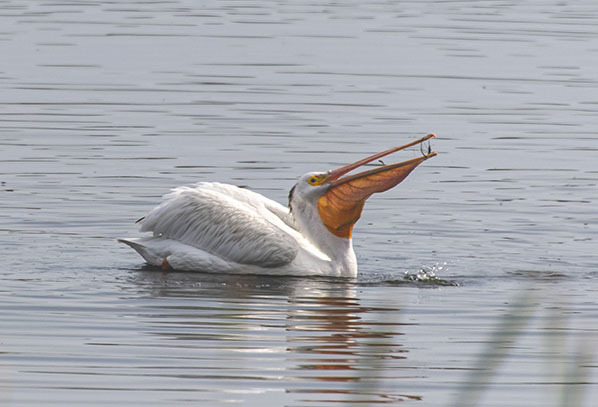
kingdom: Animalia
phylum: Chordata
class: Aves
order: Pelecaniformes
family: Pelecanidae
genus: Pelecanus
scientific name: Pelecanus erythrorhynchos
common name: American white pelican
